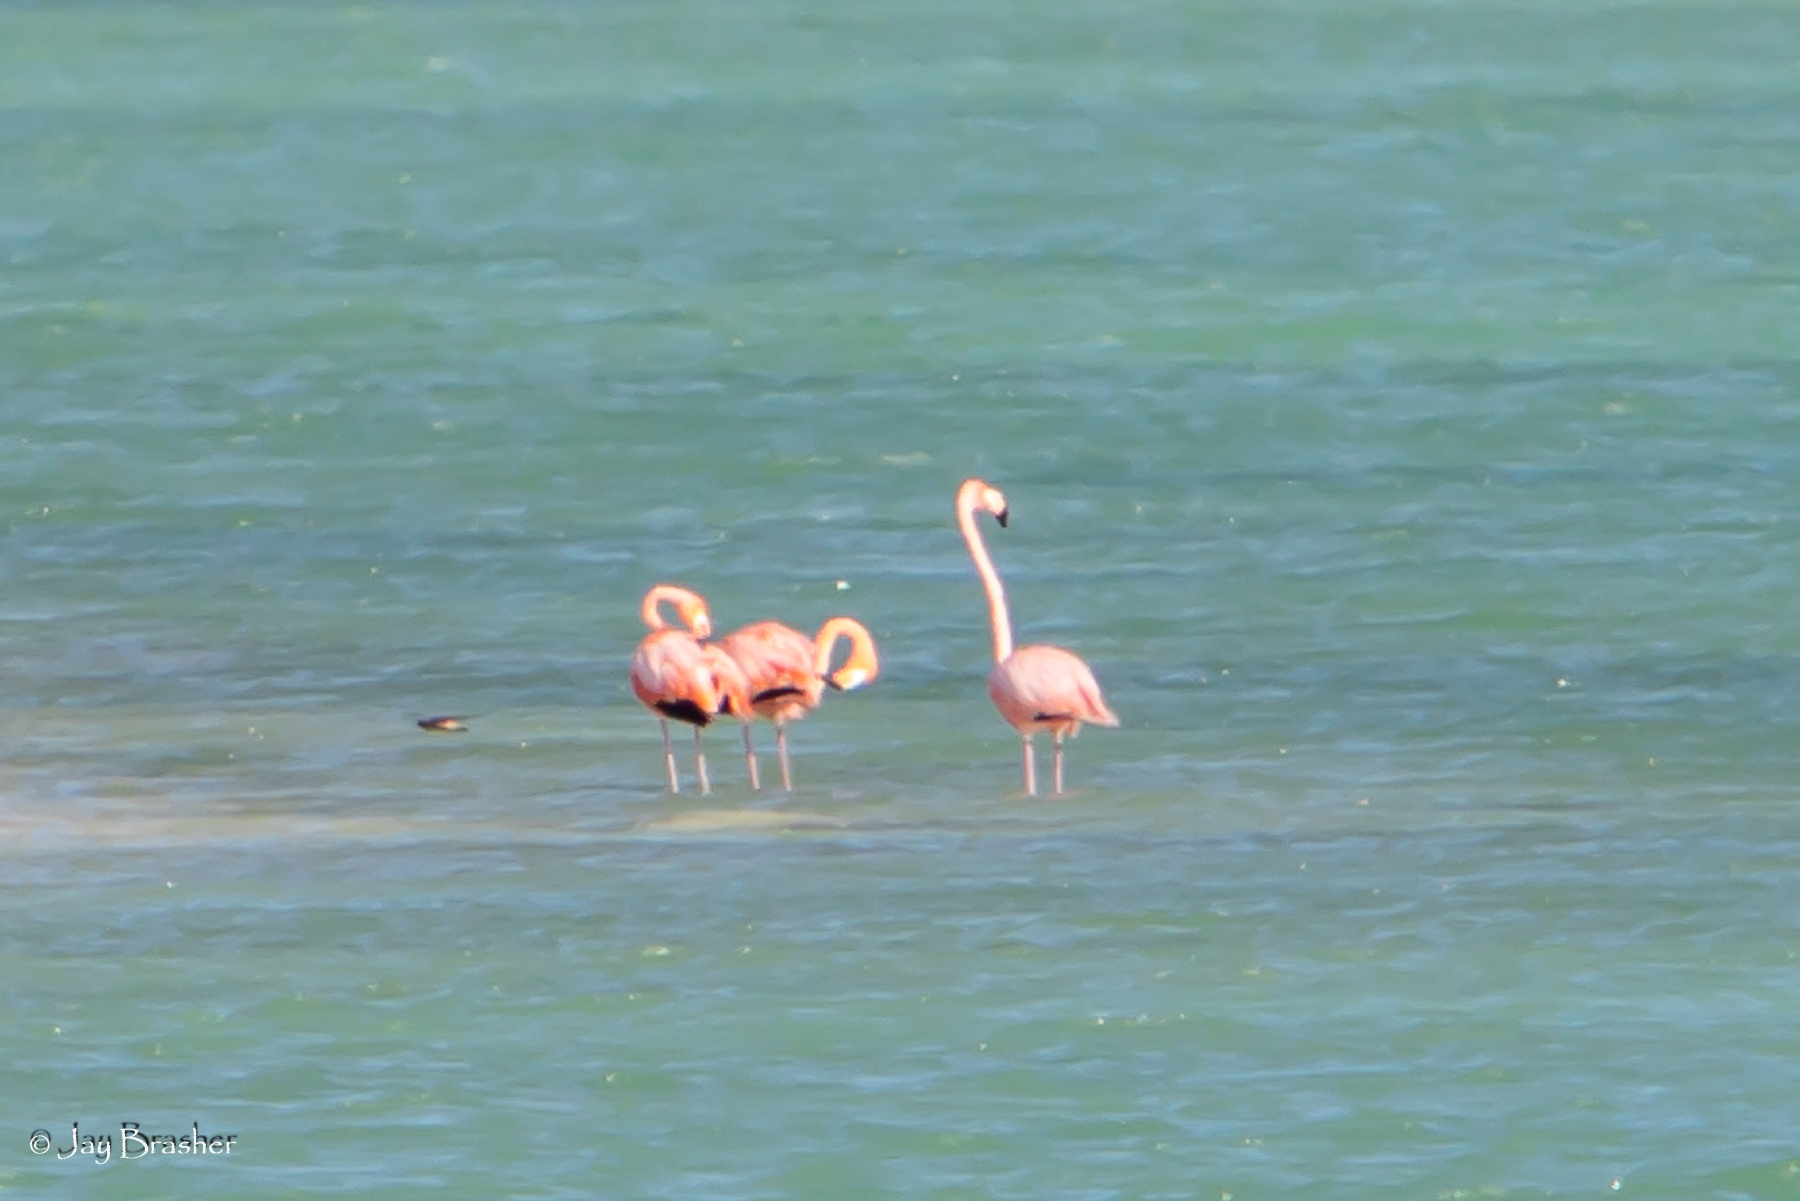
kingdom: Animalia
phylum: Chordata
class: Aves
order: Phoenicopteriformes
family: Phoenicopteridae
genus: Phoenicopterus
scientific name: Phoenicopterus ruber
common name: American flamingo
